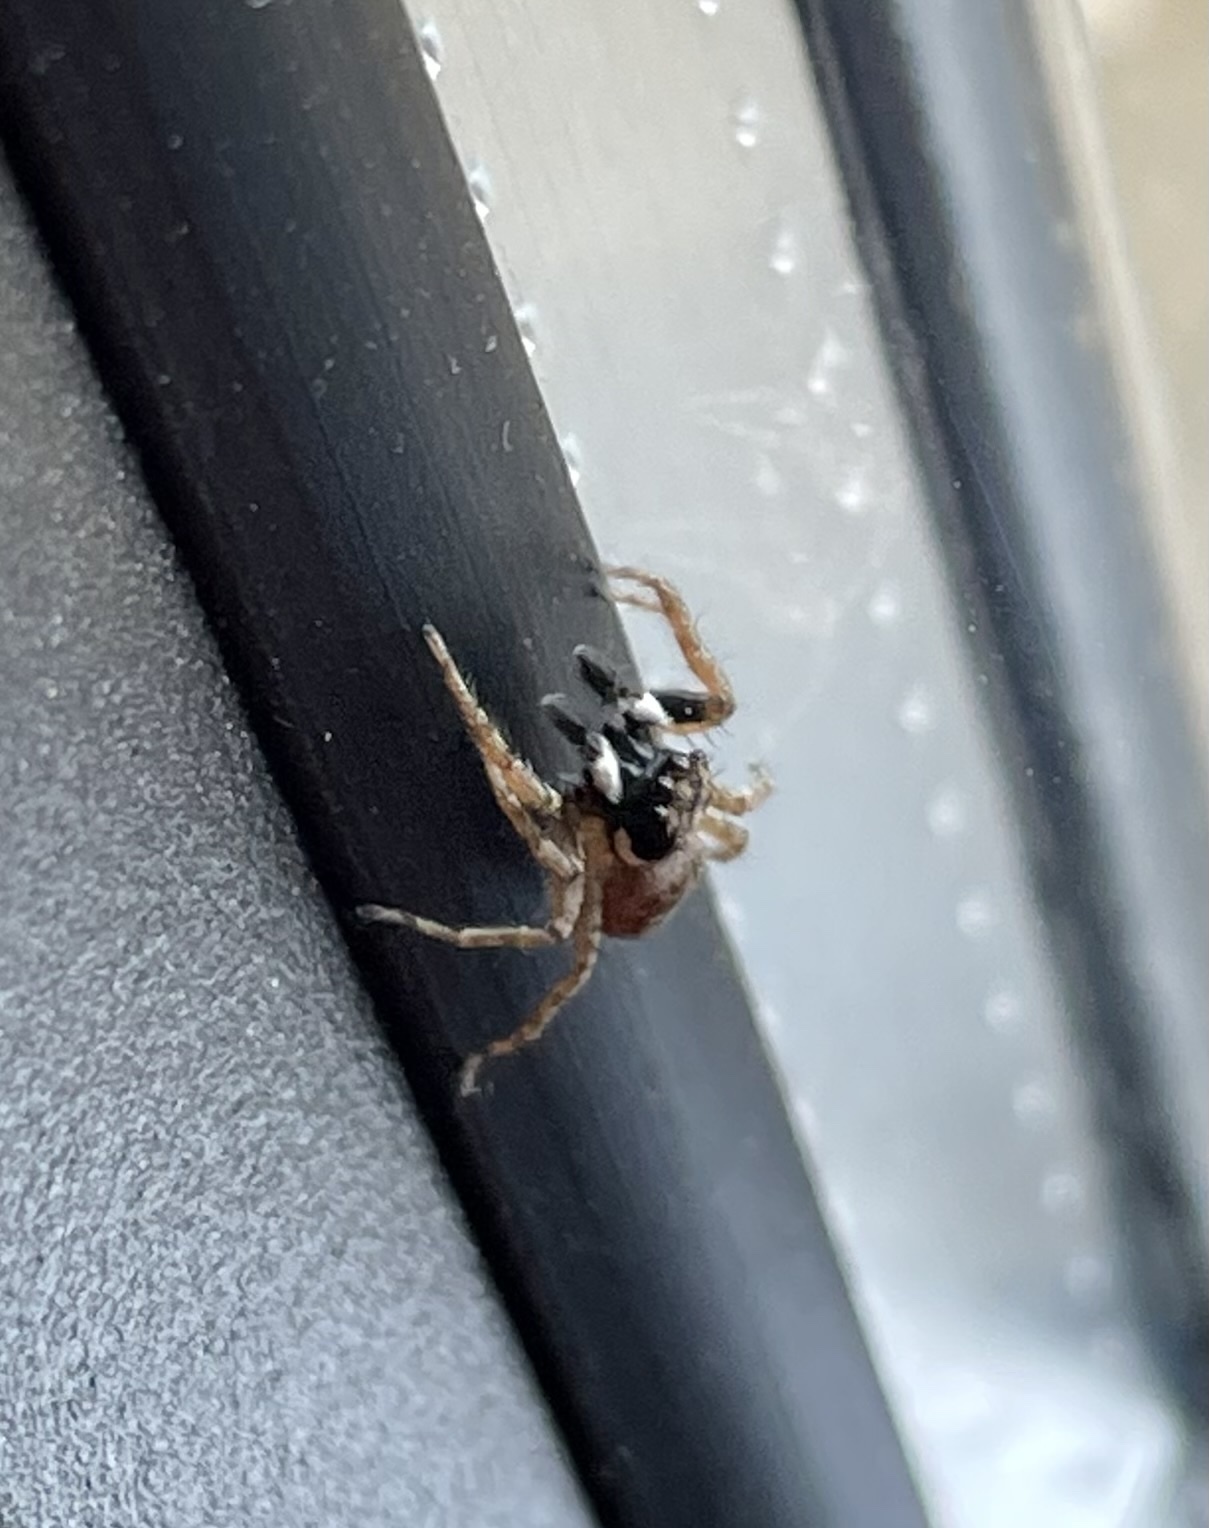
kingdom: Animalia
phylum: Arthropoda
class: Arachnida
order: Araneae
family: Salticidae
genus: Menemerus
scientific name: Menemerus semilimbatus
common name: Jumping spider
